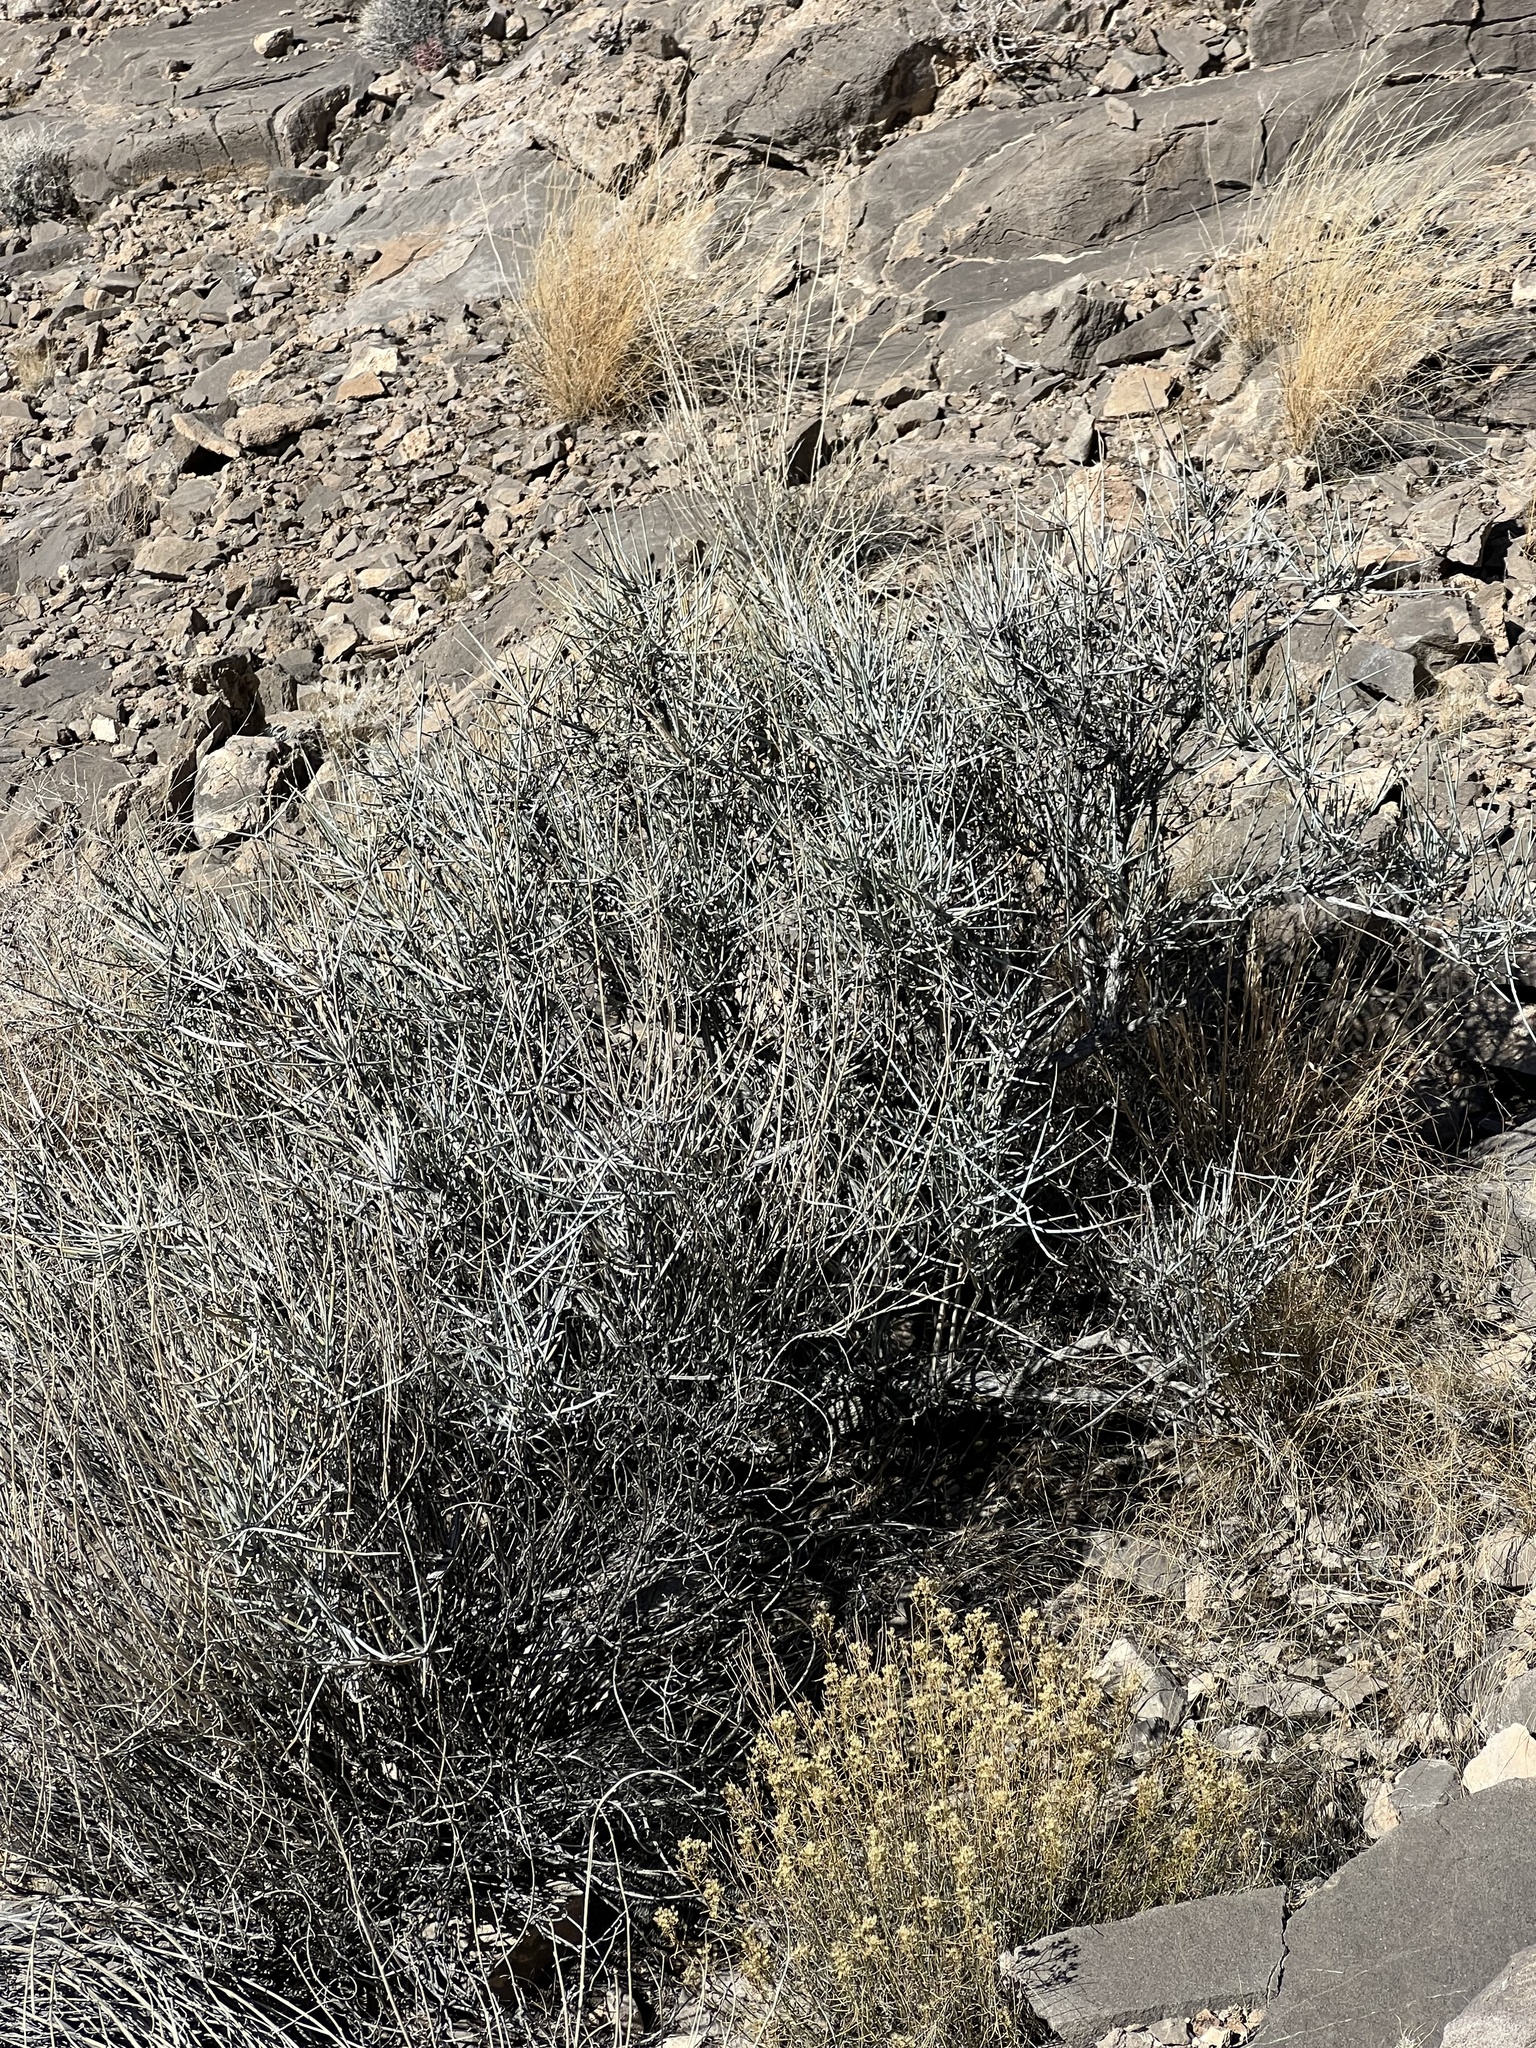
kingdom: Plantae
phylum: Tracheophyta
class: Gnetopsida
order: Ephedrales
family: Ephedraceae
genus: Ephedra
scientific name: Ephedra nevadensis
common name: Gray ephedra
